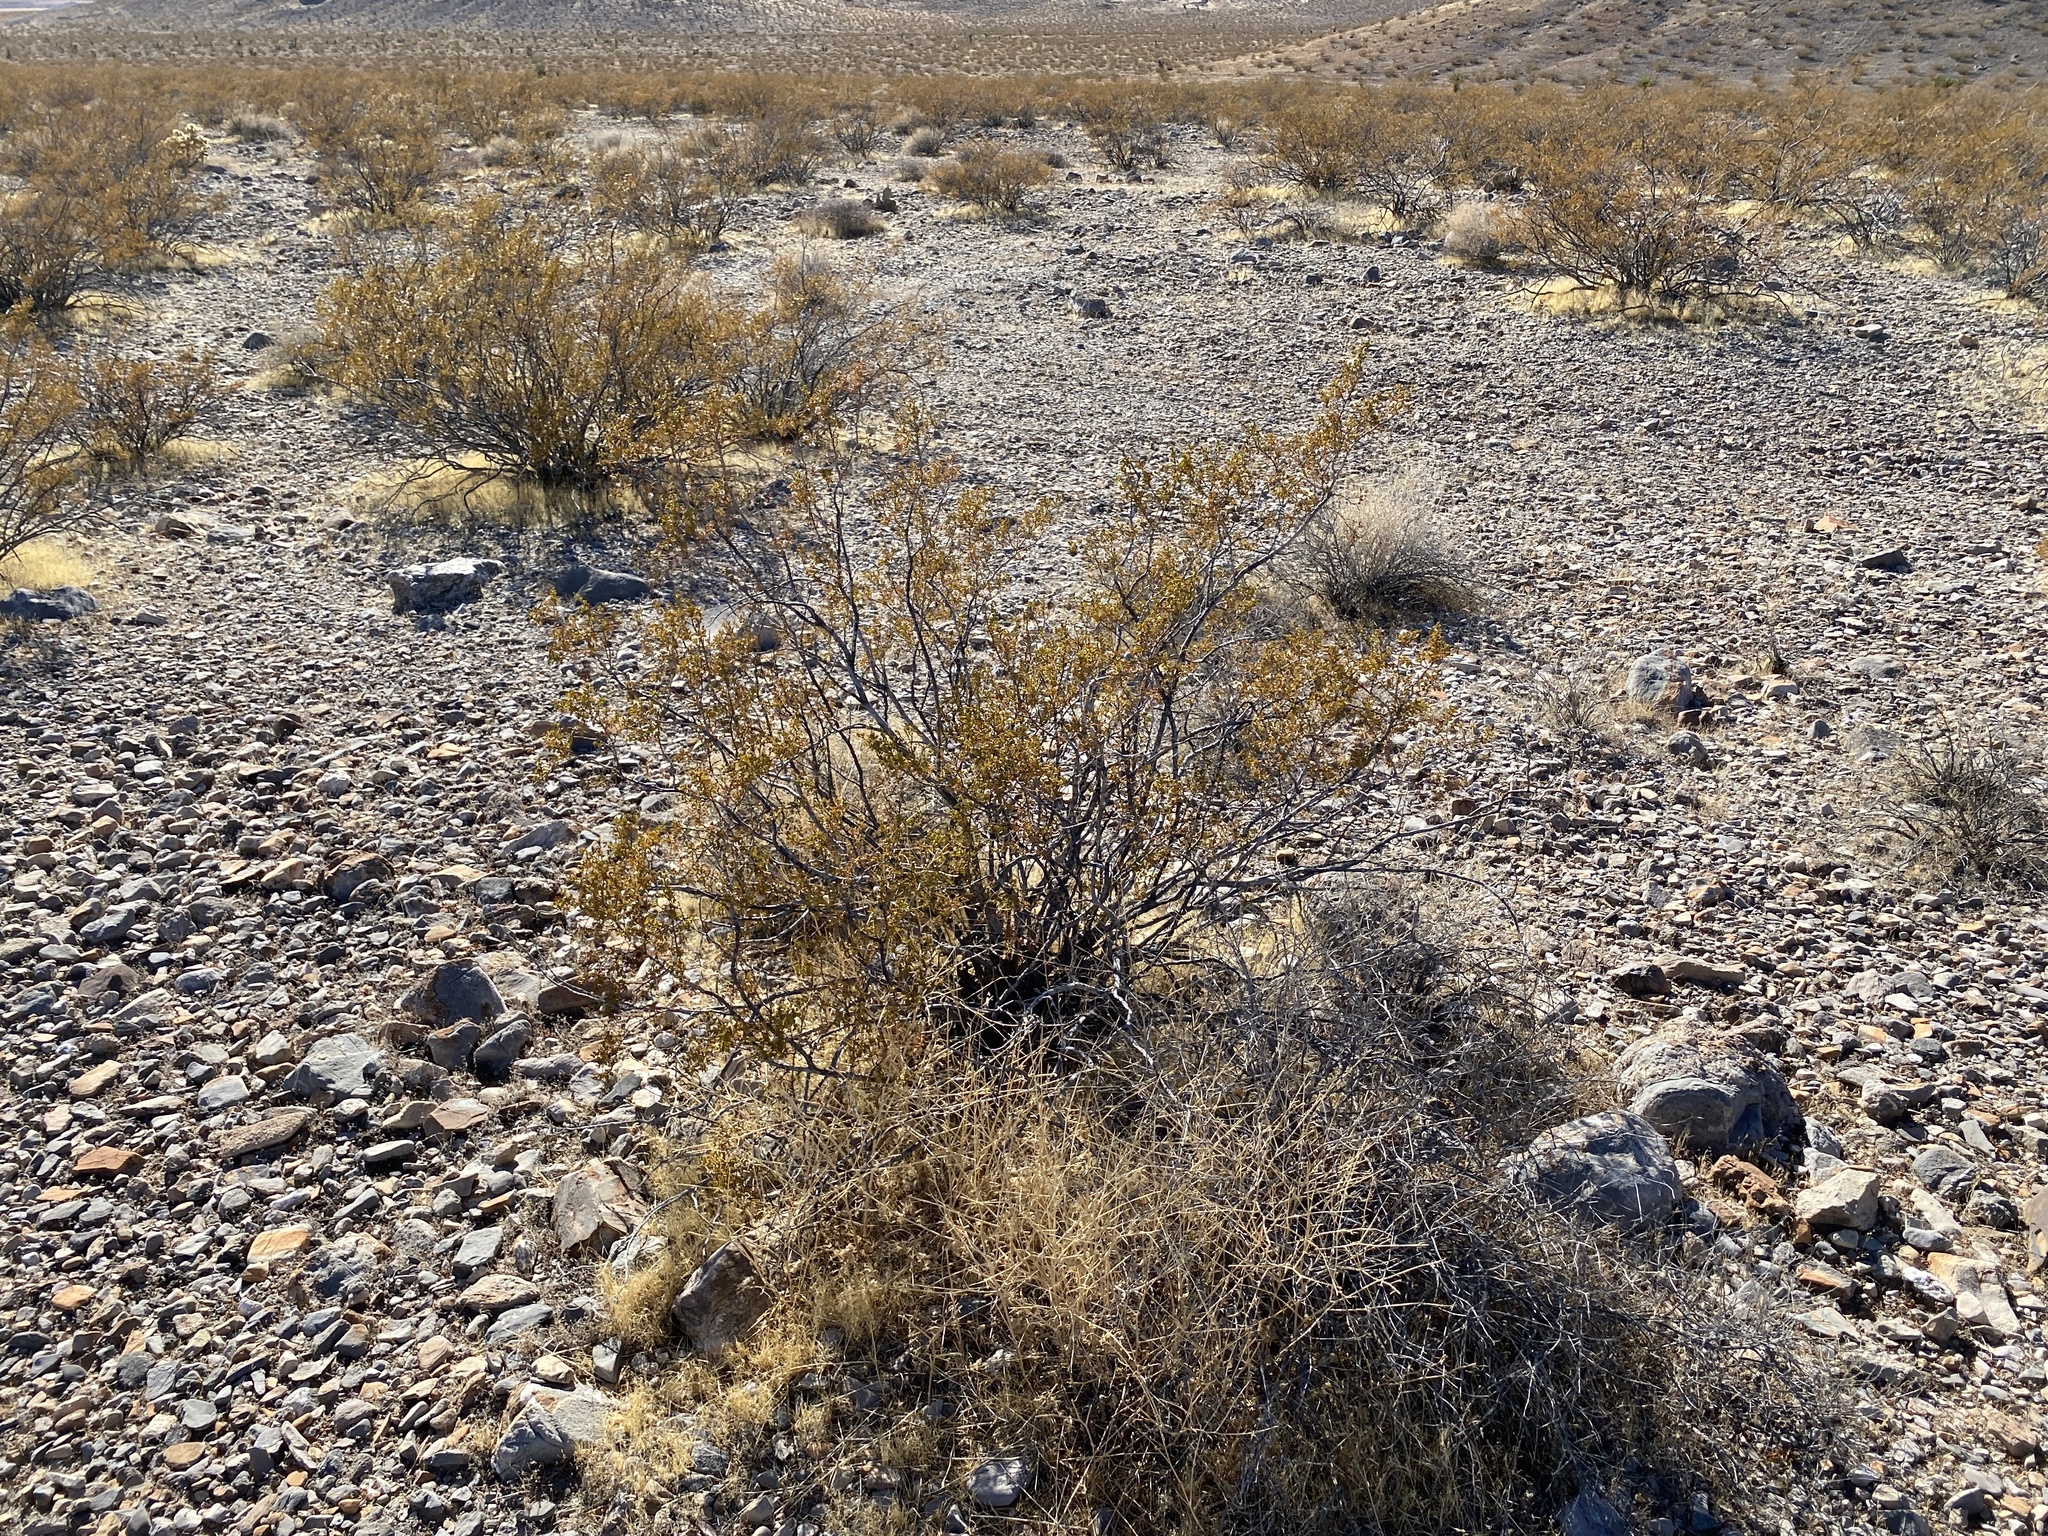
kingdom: Plantae
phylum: Tracheophyta
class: Magnoliopsida
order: Zygophyllales
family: Zygophyllaceae
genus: Larrea
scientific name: Larrea tridentata
